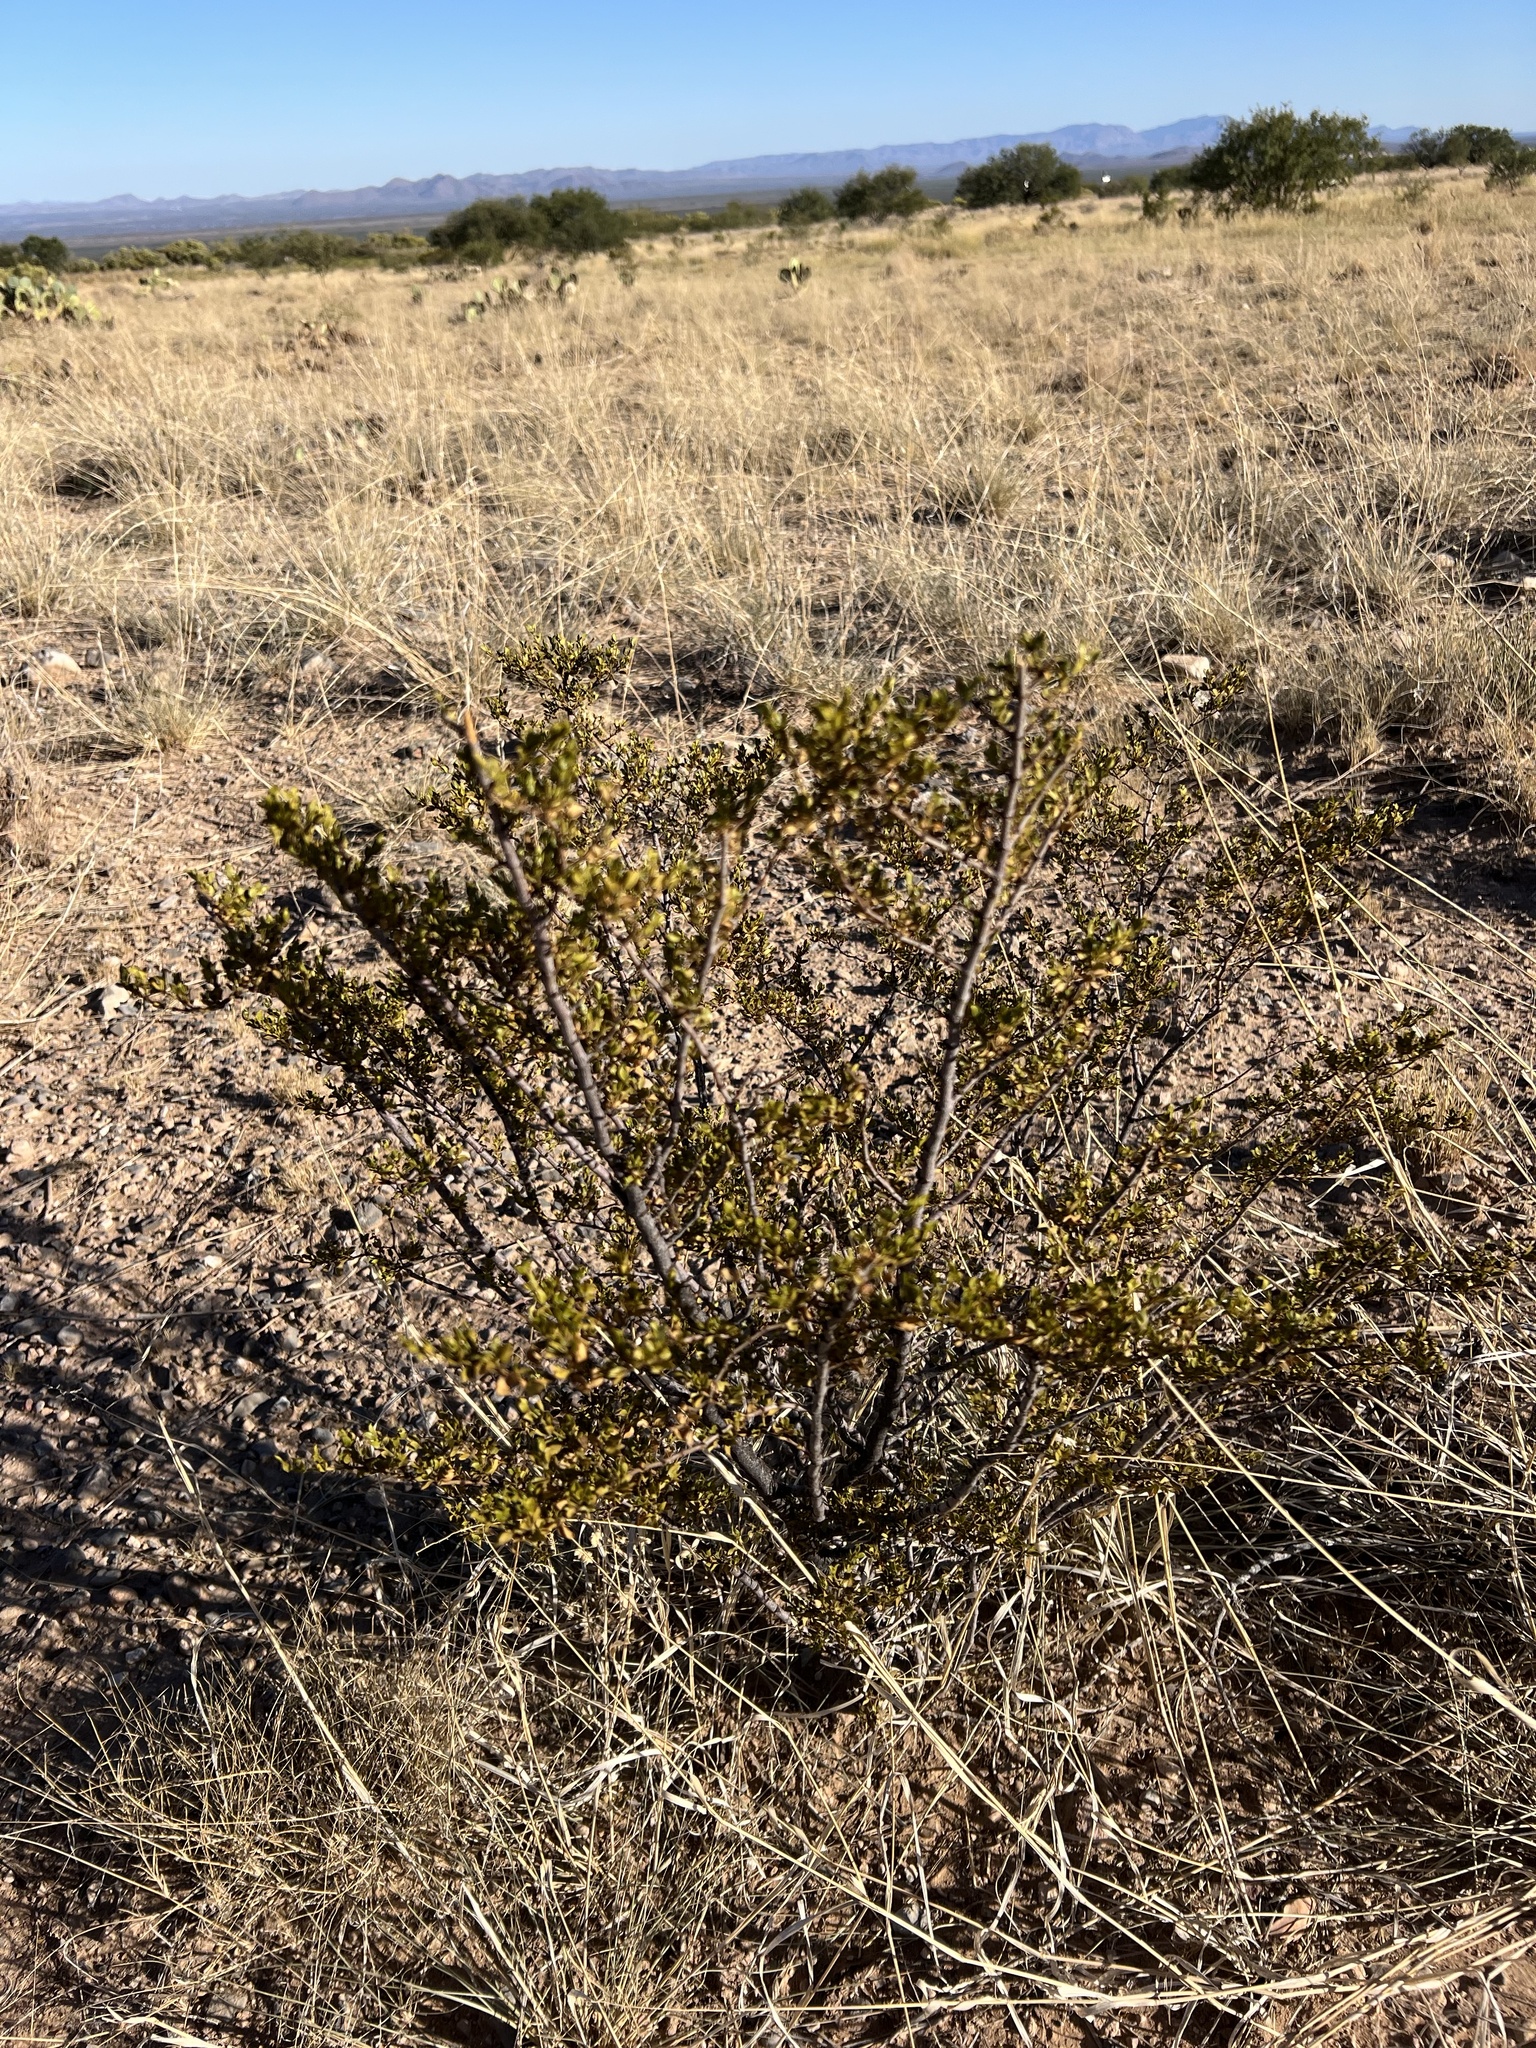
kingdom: Plantae
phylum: Tracheophyta
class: Magnoliopsida
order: Zygophyllales
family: Zygophyllaceae
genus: Larrea
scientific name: Larrea tridentata
